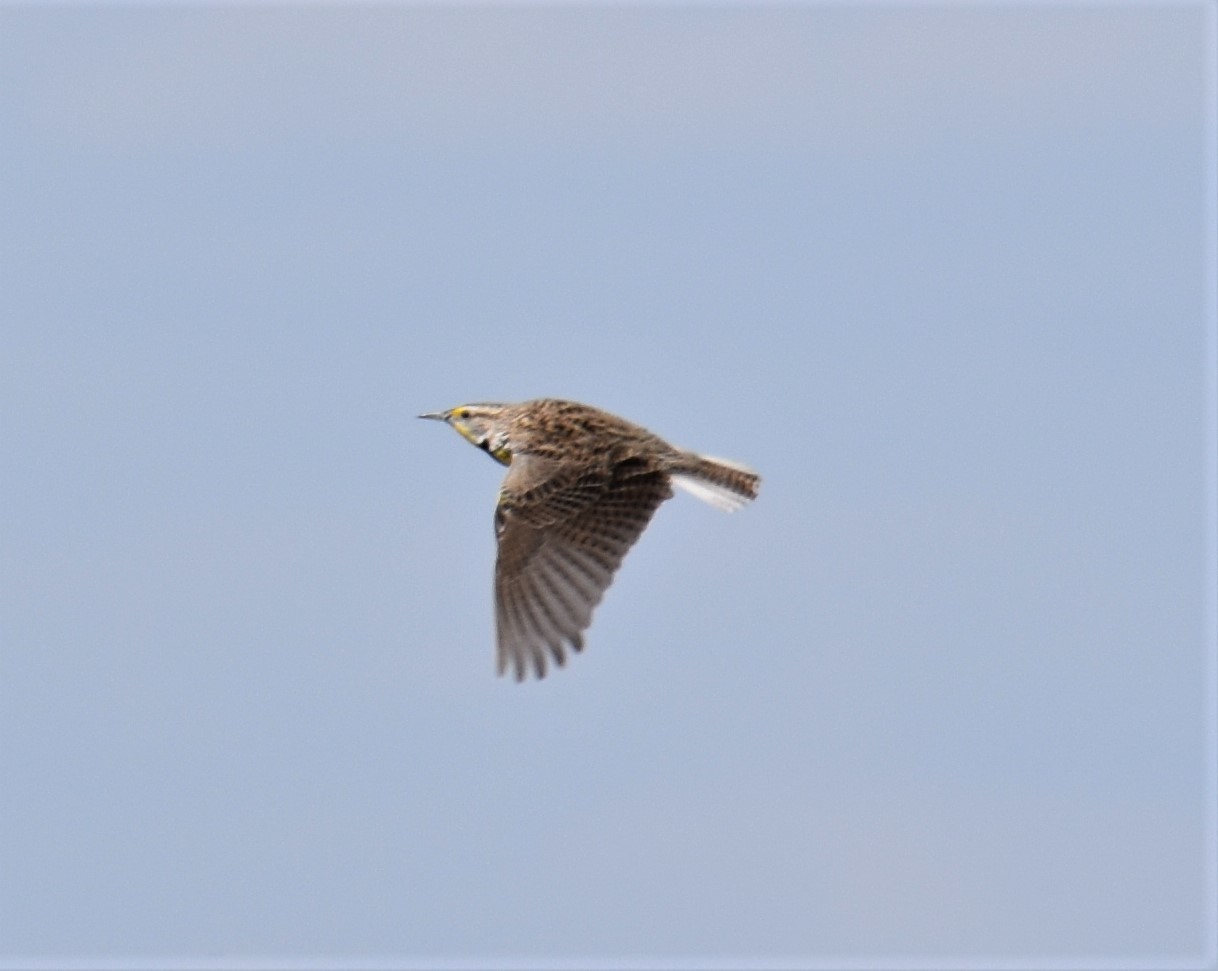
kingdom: Animalia
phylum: Chordata
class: Aves
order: Passeriformes
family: Icteridae
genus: Sturnella
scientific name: Sturnella neglecta
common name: Western meadowlark
